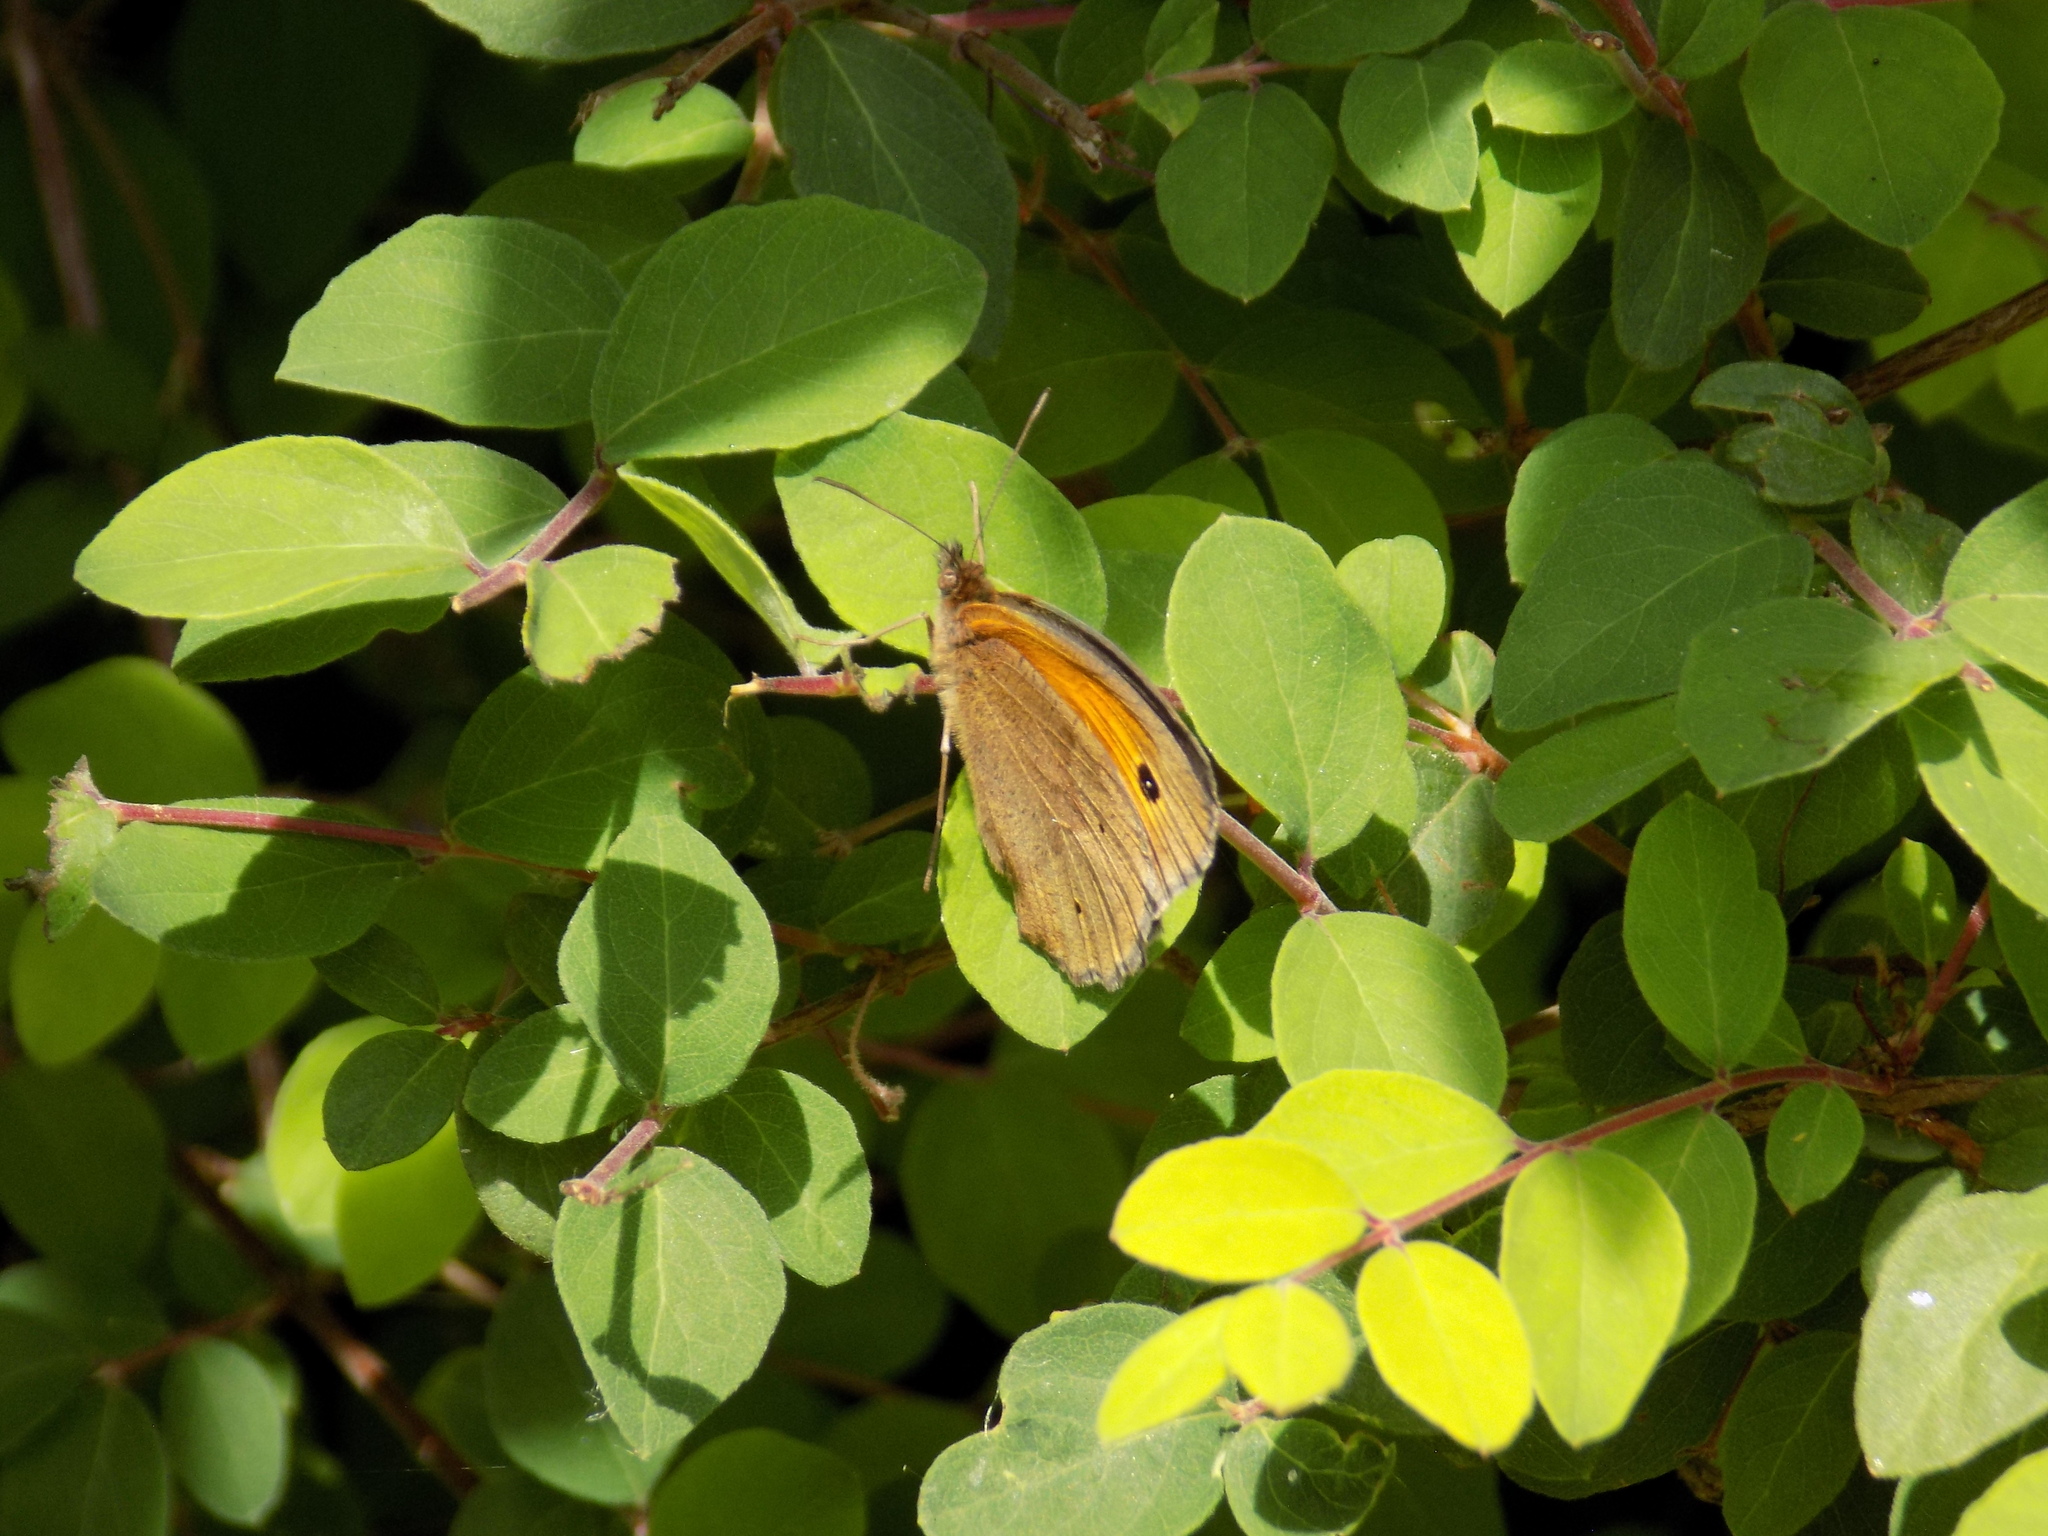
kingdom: Animalia
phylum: Arthropoda
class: Insecta
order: Lepidoptera
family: Nymphalidae
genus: Maniola
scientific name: Maniola jurtina
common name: Meadow brown
